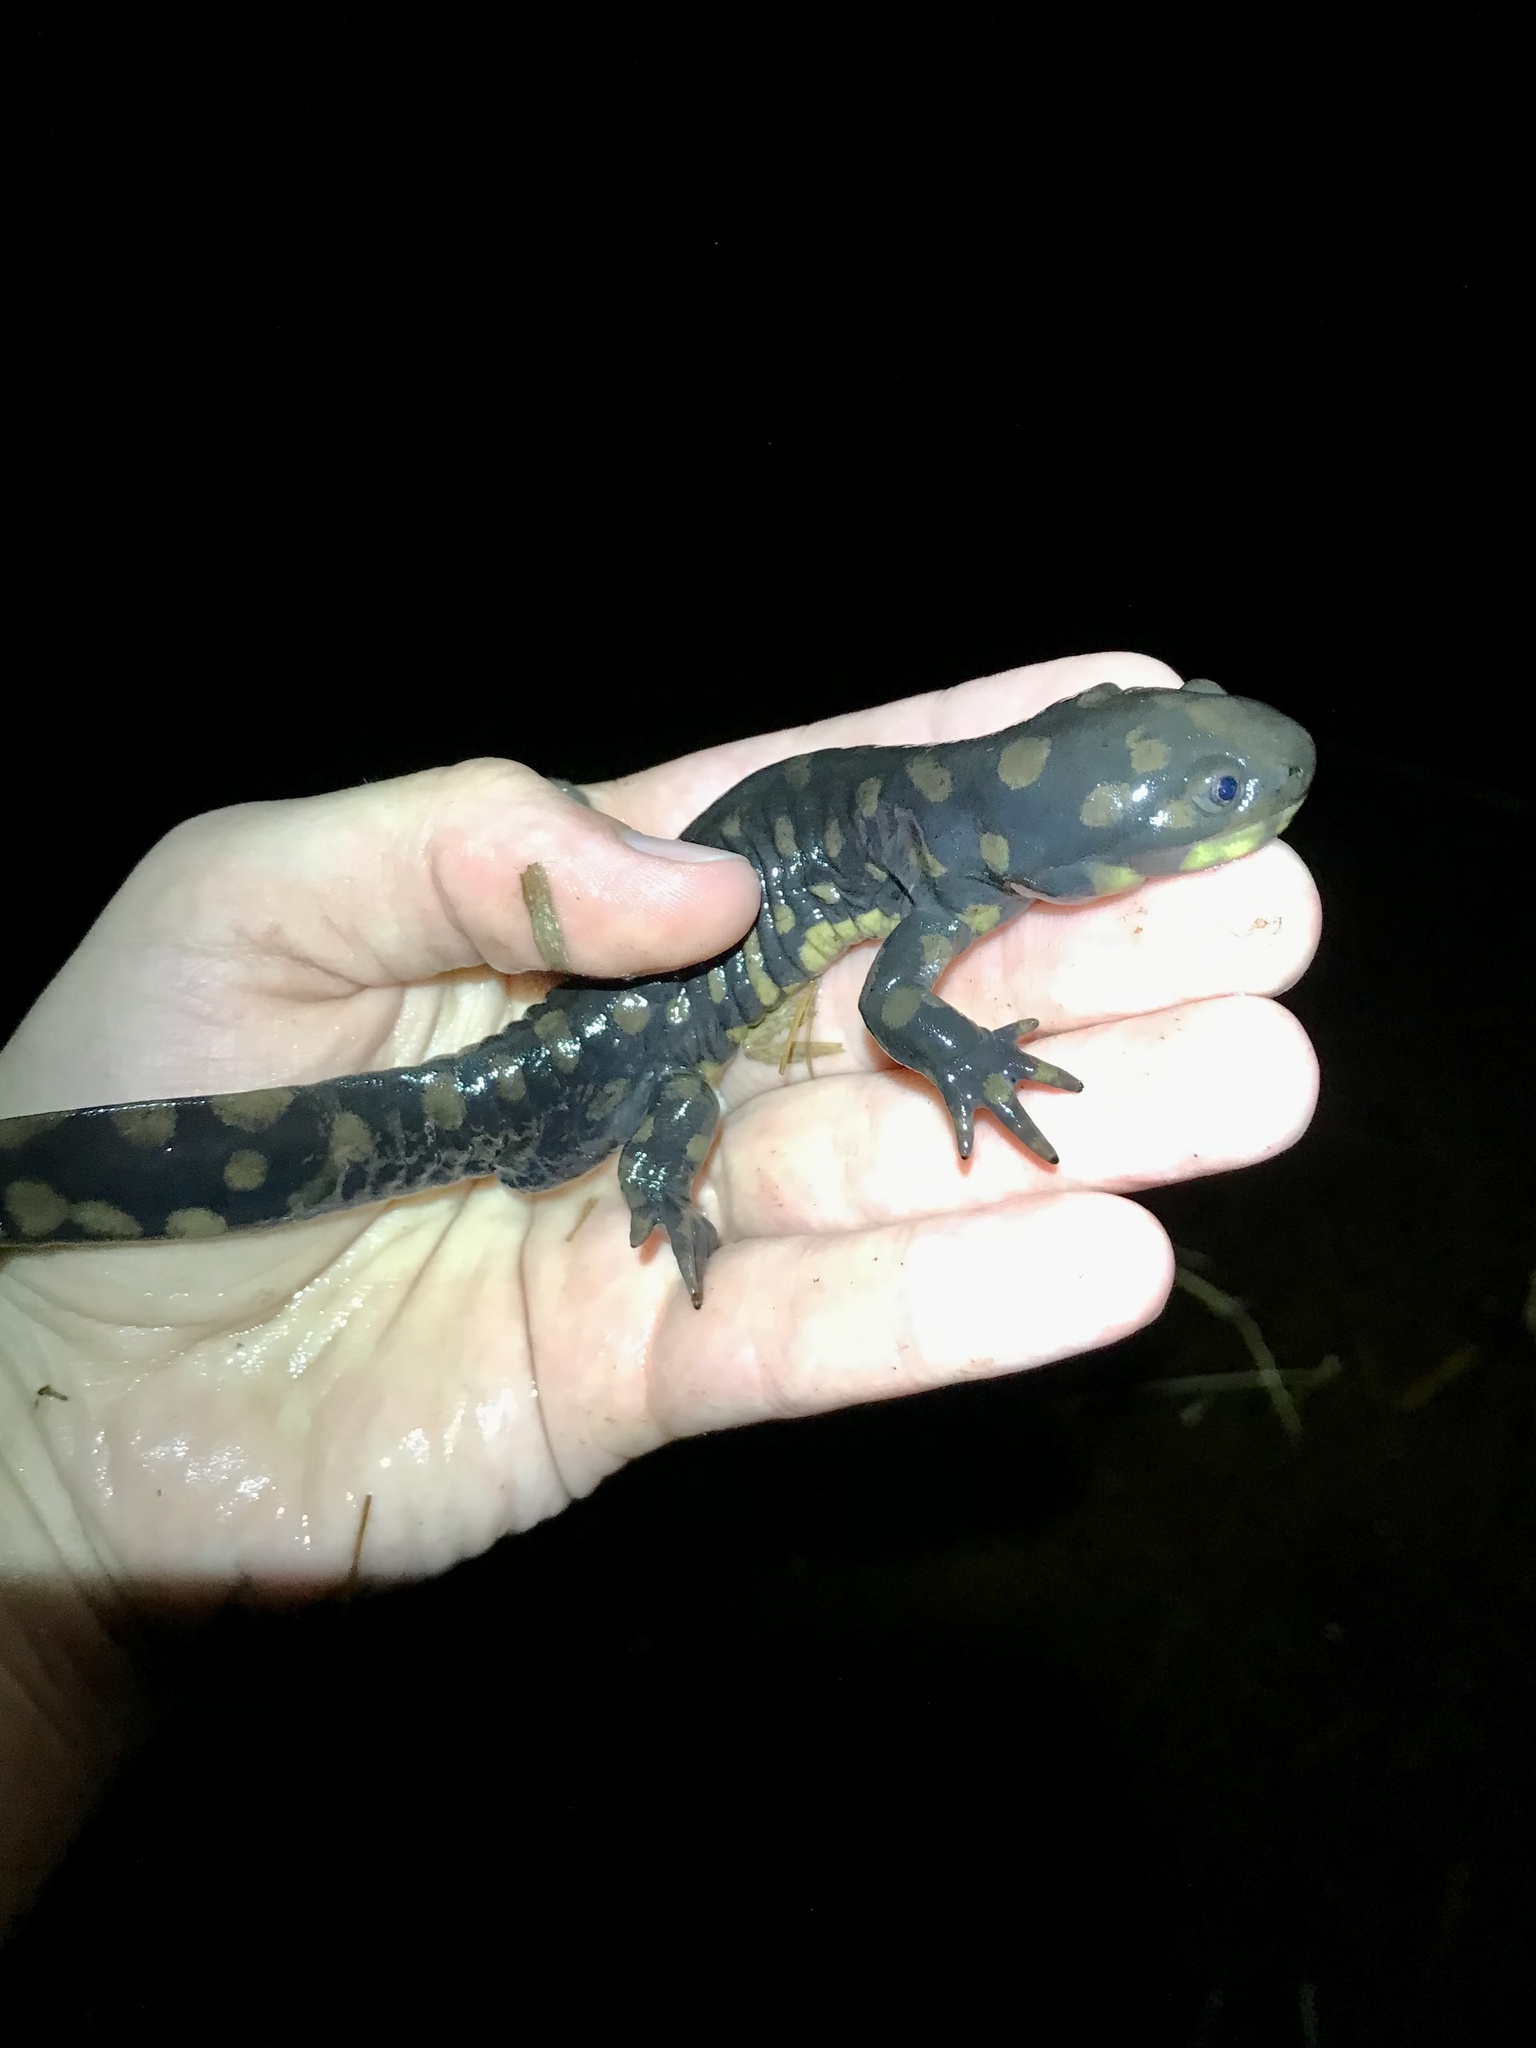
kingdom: Animalia
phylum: Chordata
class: Amphibia
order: Caudata
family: Ambystomatidae
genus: Ambystoma
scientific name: Ambystoma tigrinum
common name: Tiger salamander
